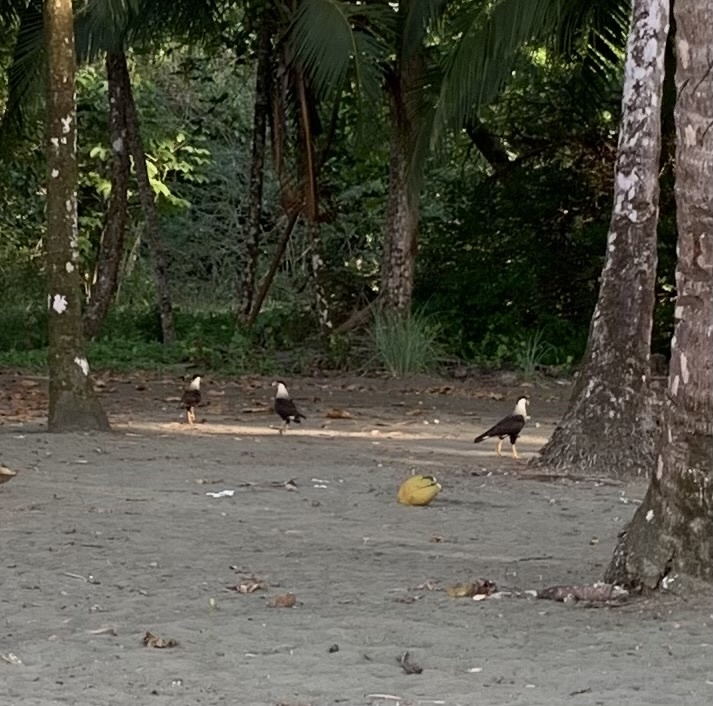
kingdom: Animalia
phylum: Chordata
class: Aves
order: Falconiformes
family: Falconidae
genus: Caracara
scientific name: Caracara plancus
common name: Southern caracara
